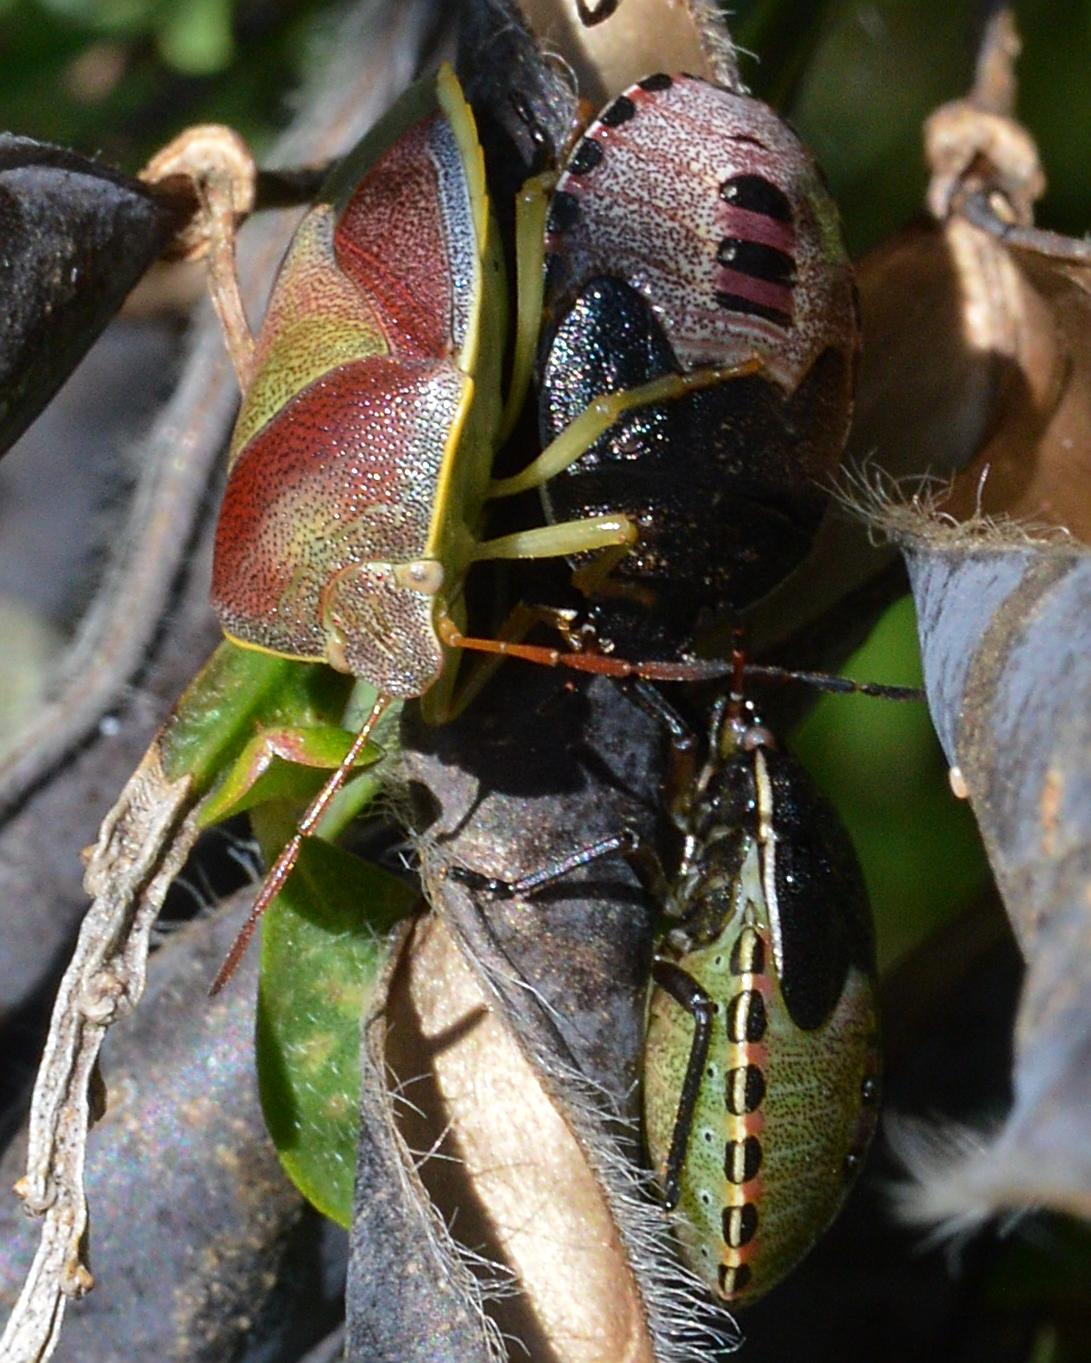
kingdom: Animalia
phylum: Arthropoda
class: Insecta
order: Hemiptera
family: Pentatomidae
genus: Piezodorus
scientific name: Piezodorus lituratus
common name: Stink bug
